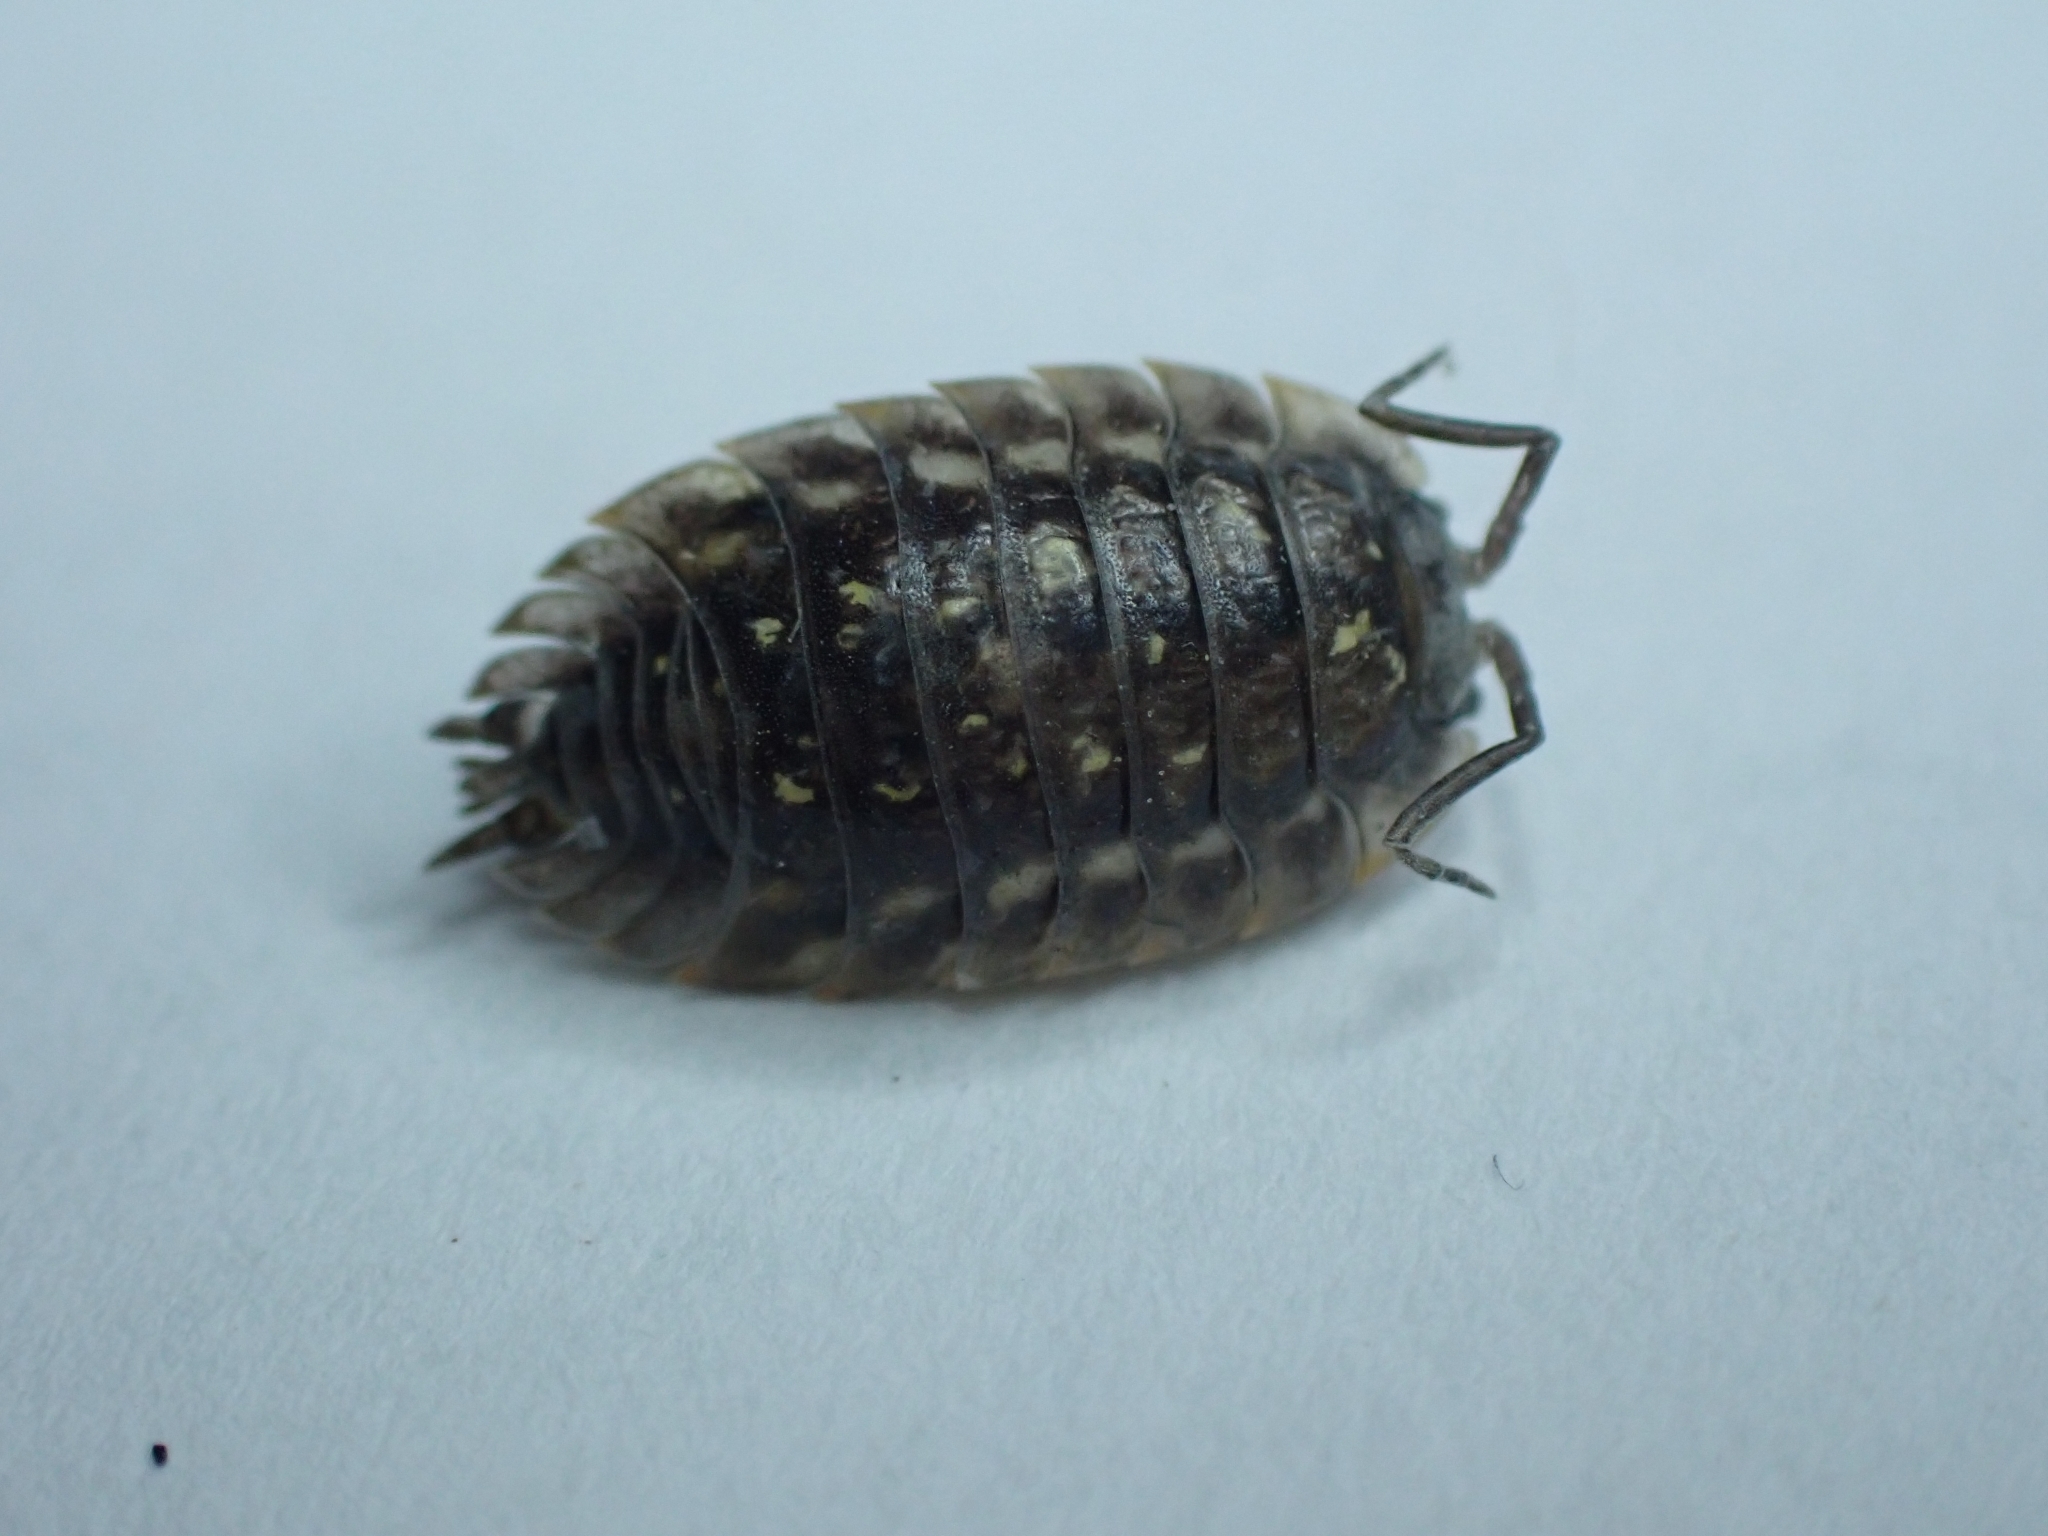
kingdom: Animalia
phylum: Arthropoda
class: Malacostraca
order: Isopoda
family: Oniscidae
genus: Oniscus
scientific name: Oniscus asellus
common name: Common shiny woodlouse
